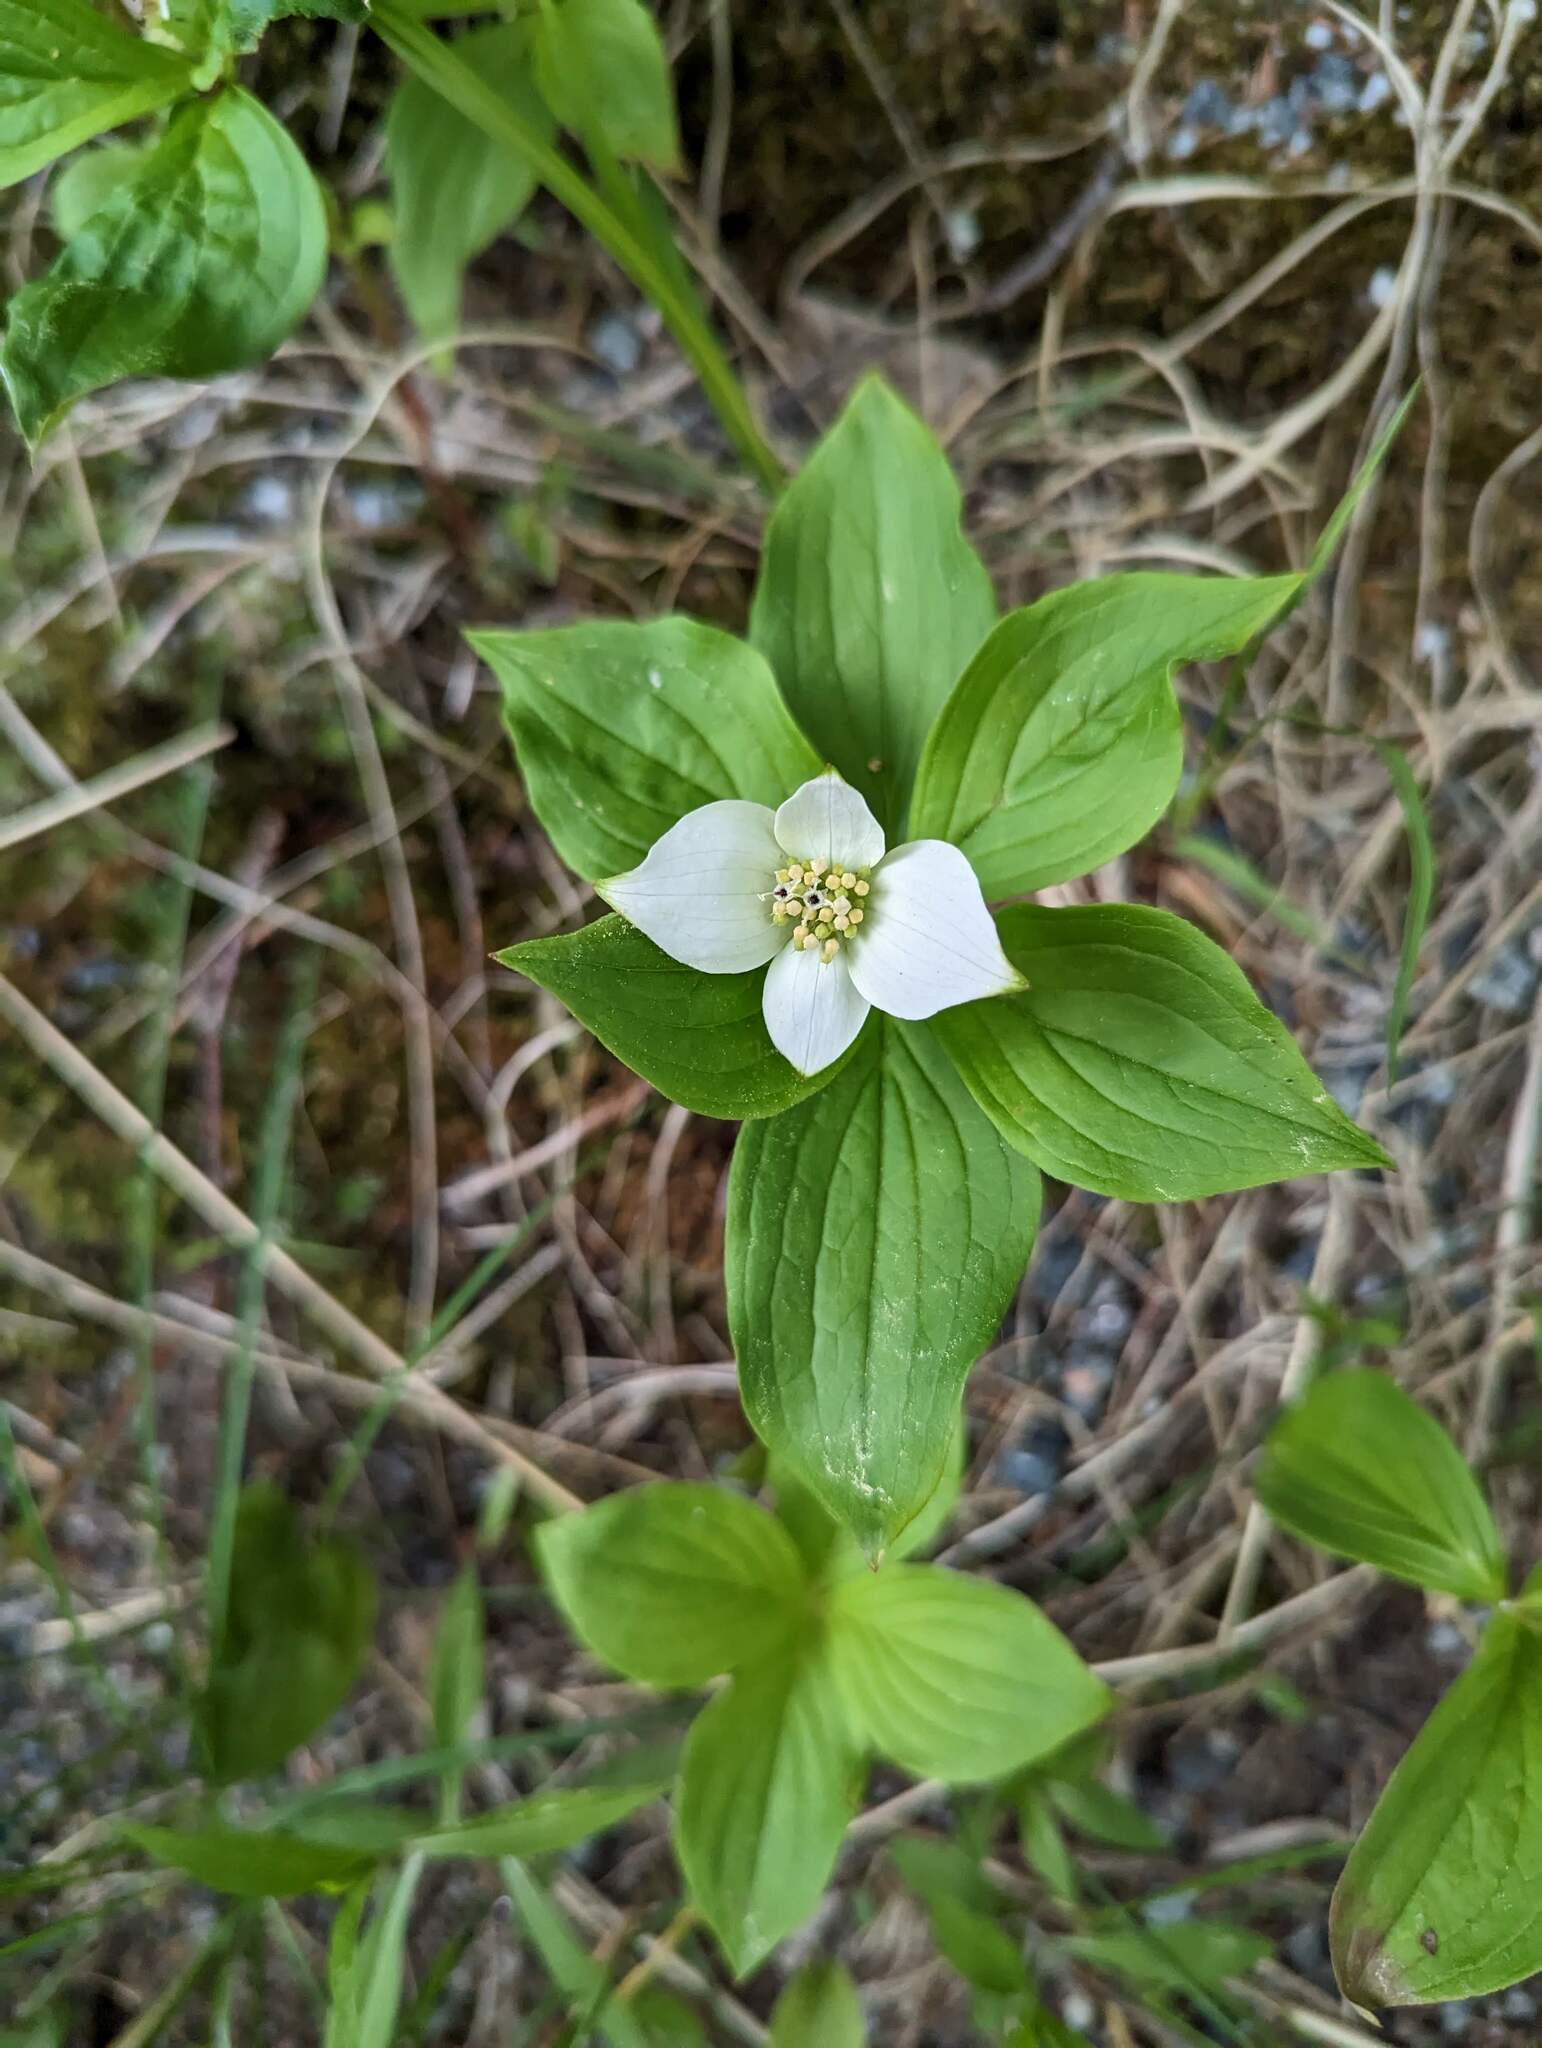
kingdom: Plantae
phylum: Tracheophyta
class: Magnoliopsida
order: Cornales
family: Cornaceae
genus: Cornus
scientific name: Cornus canadensis
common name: Creeping dogwood
